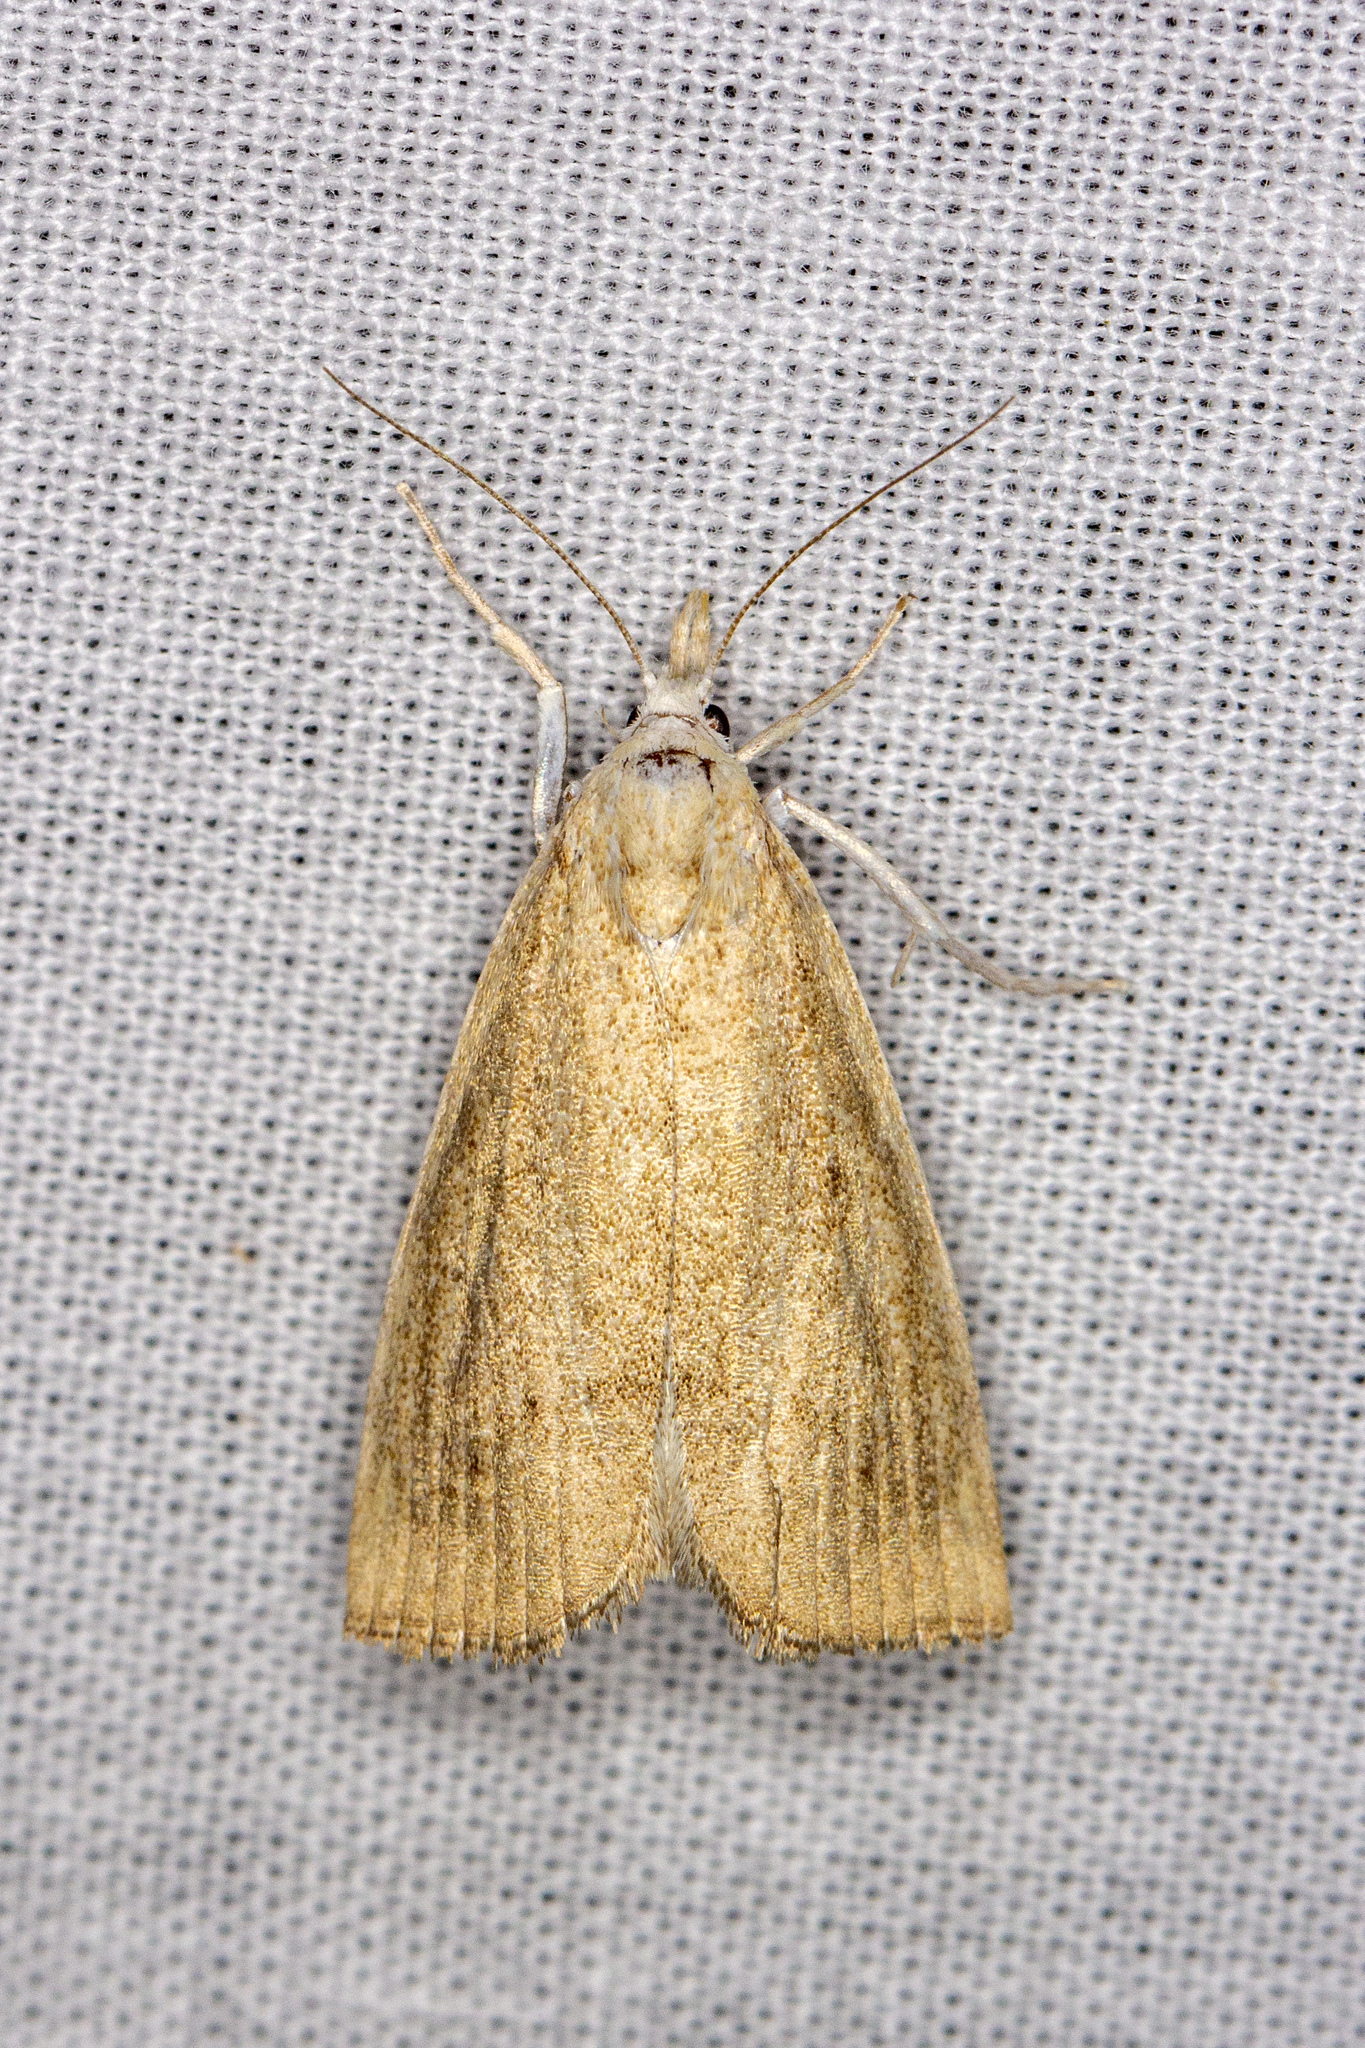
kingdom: Animalia
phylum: Arthropoda
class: Insecta
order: Lepidoptera
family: Crambidae
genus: Calamotropha
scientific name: Calamotropha paludella
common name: Bulrush veneer
